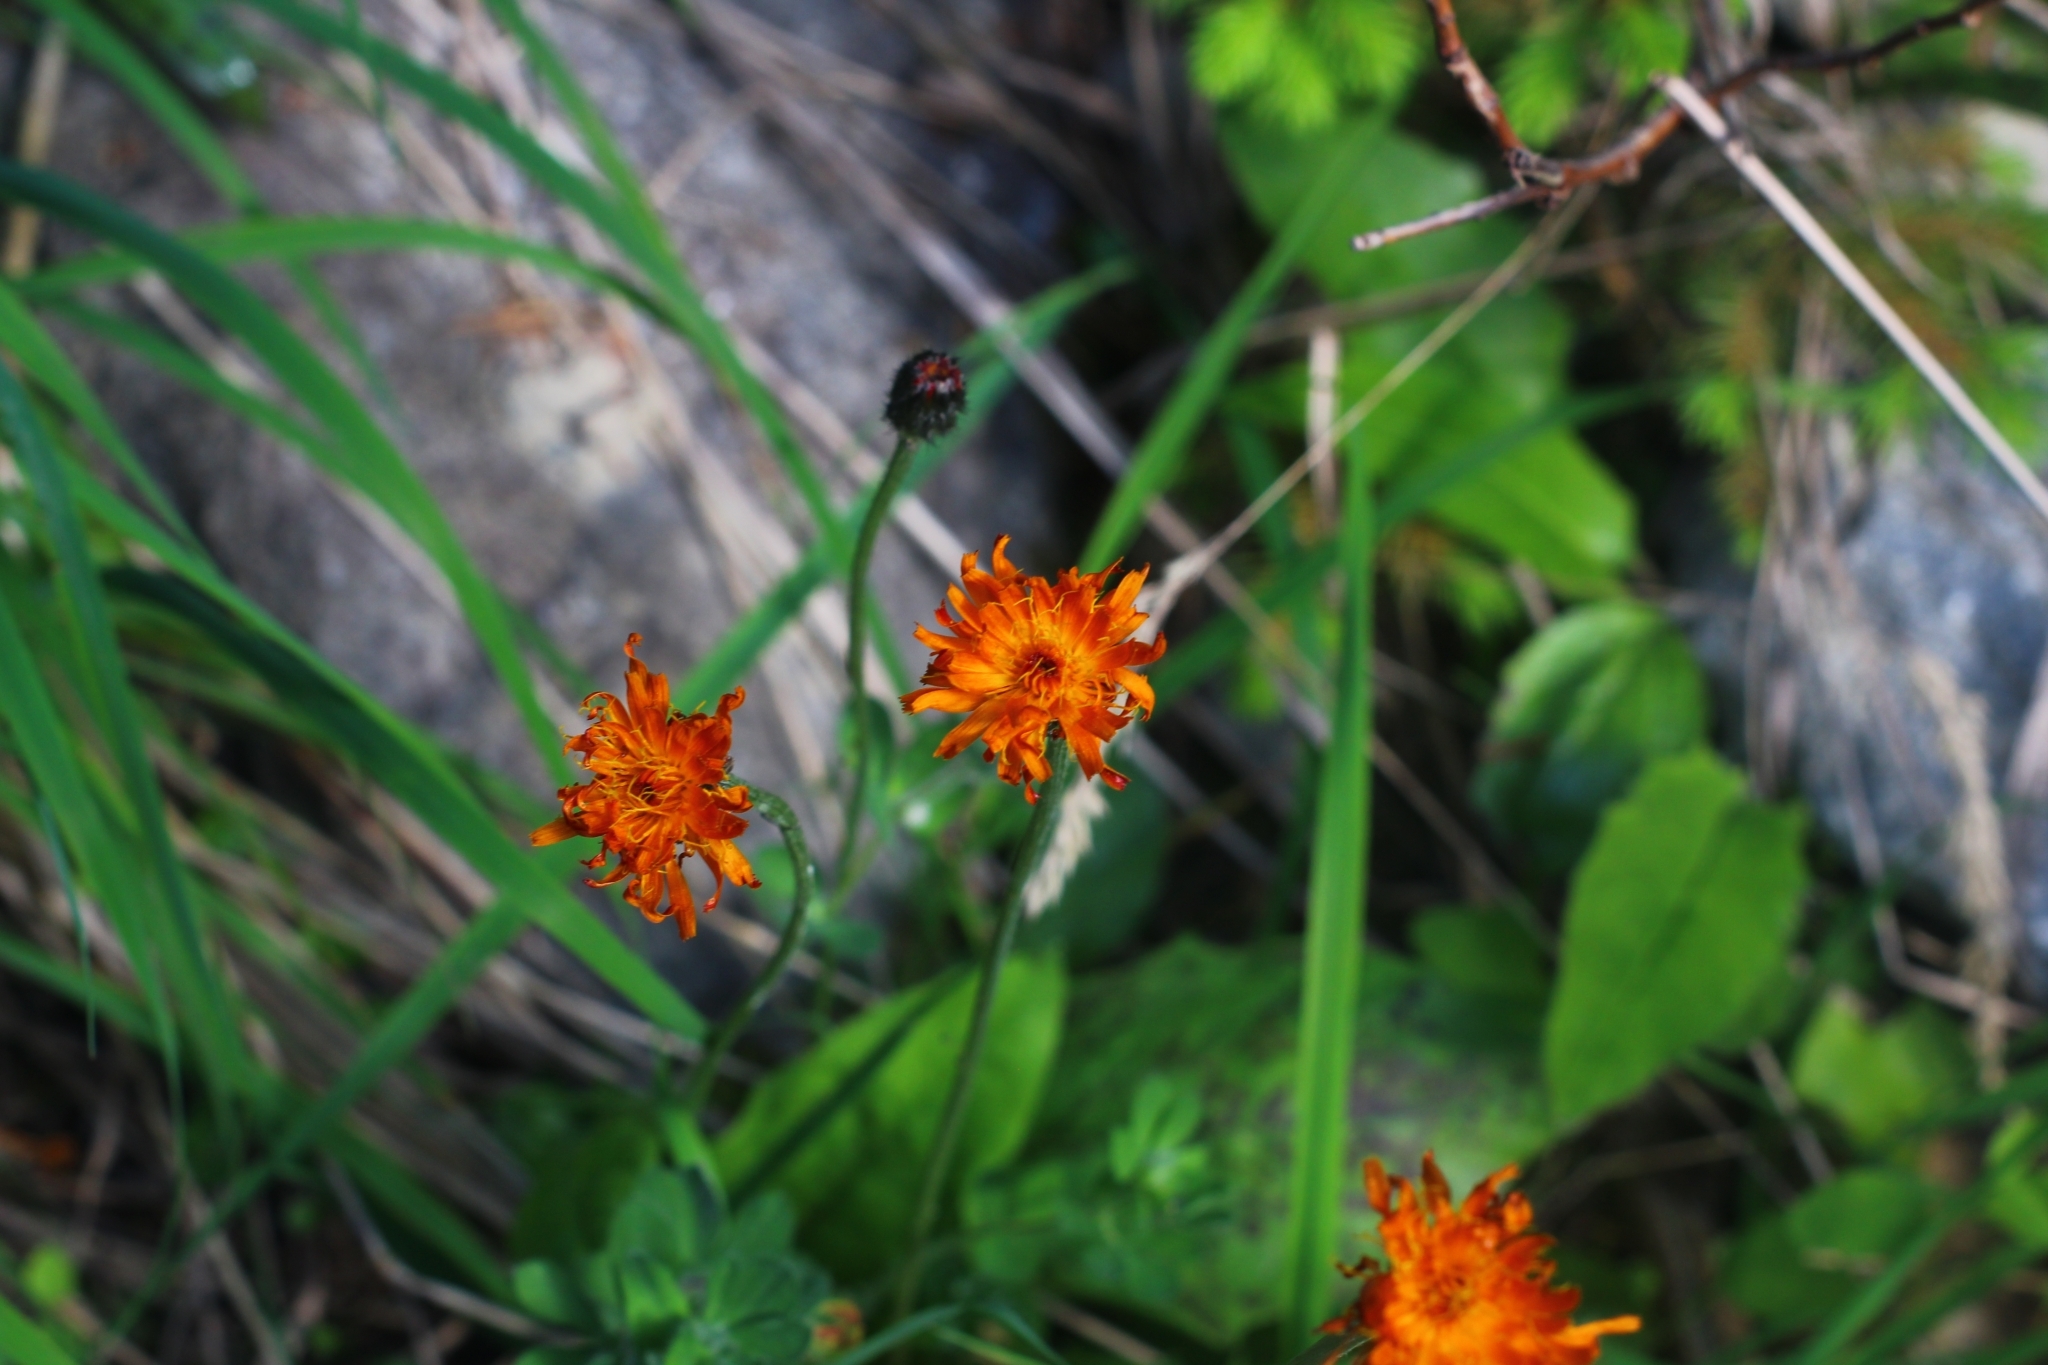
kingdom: Plantae
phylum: Tracheophyta
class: Magnoliopsida
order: Asterales
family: Asteraceae
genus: Crepis
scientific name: Crepis aurea
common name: Golden hawk's-beard
